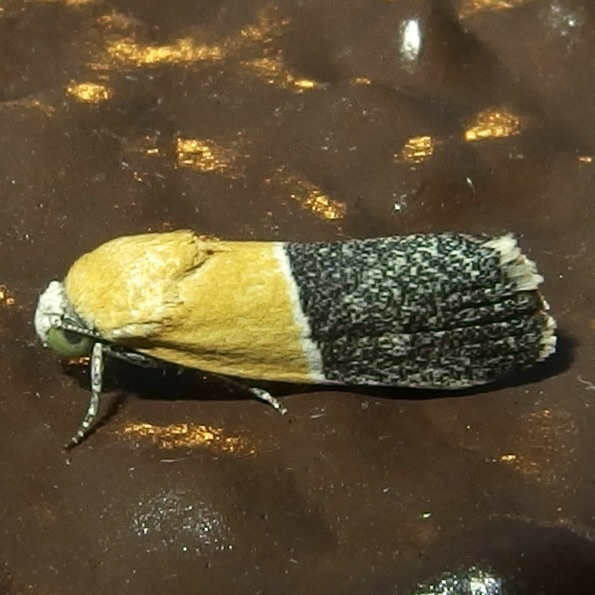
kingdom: Animalia
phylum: Arthropoda
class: Insecta
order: Lepidoptera
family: Noctuidae
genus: Acontia
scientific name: Acontia clausula
